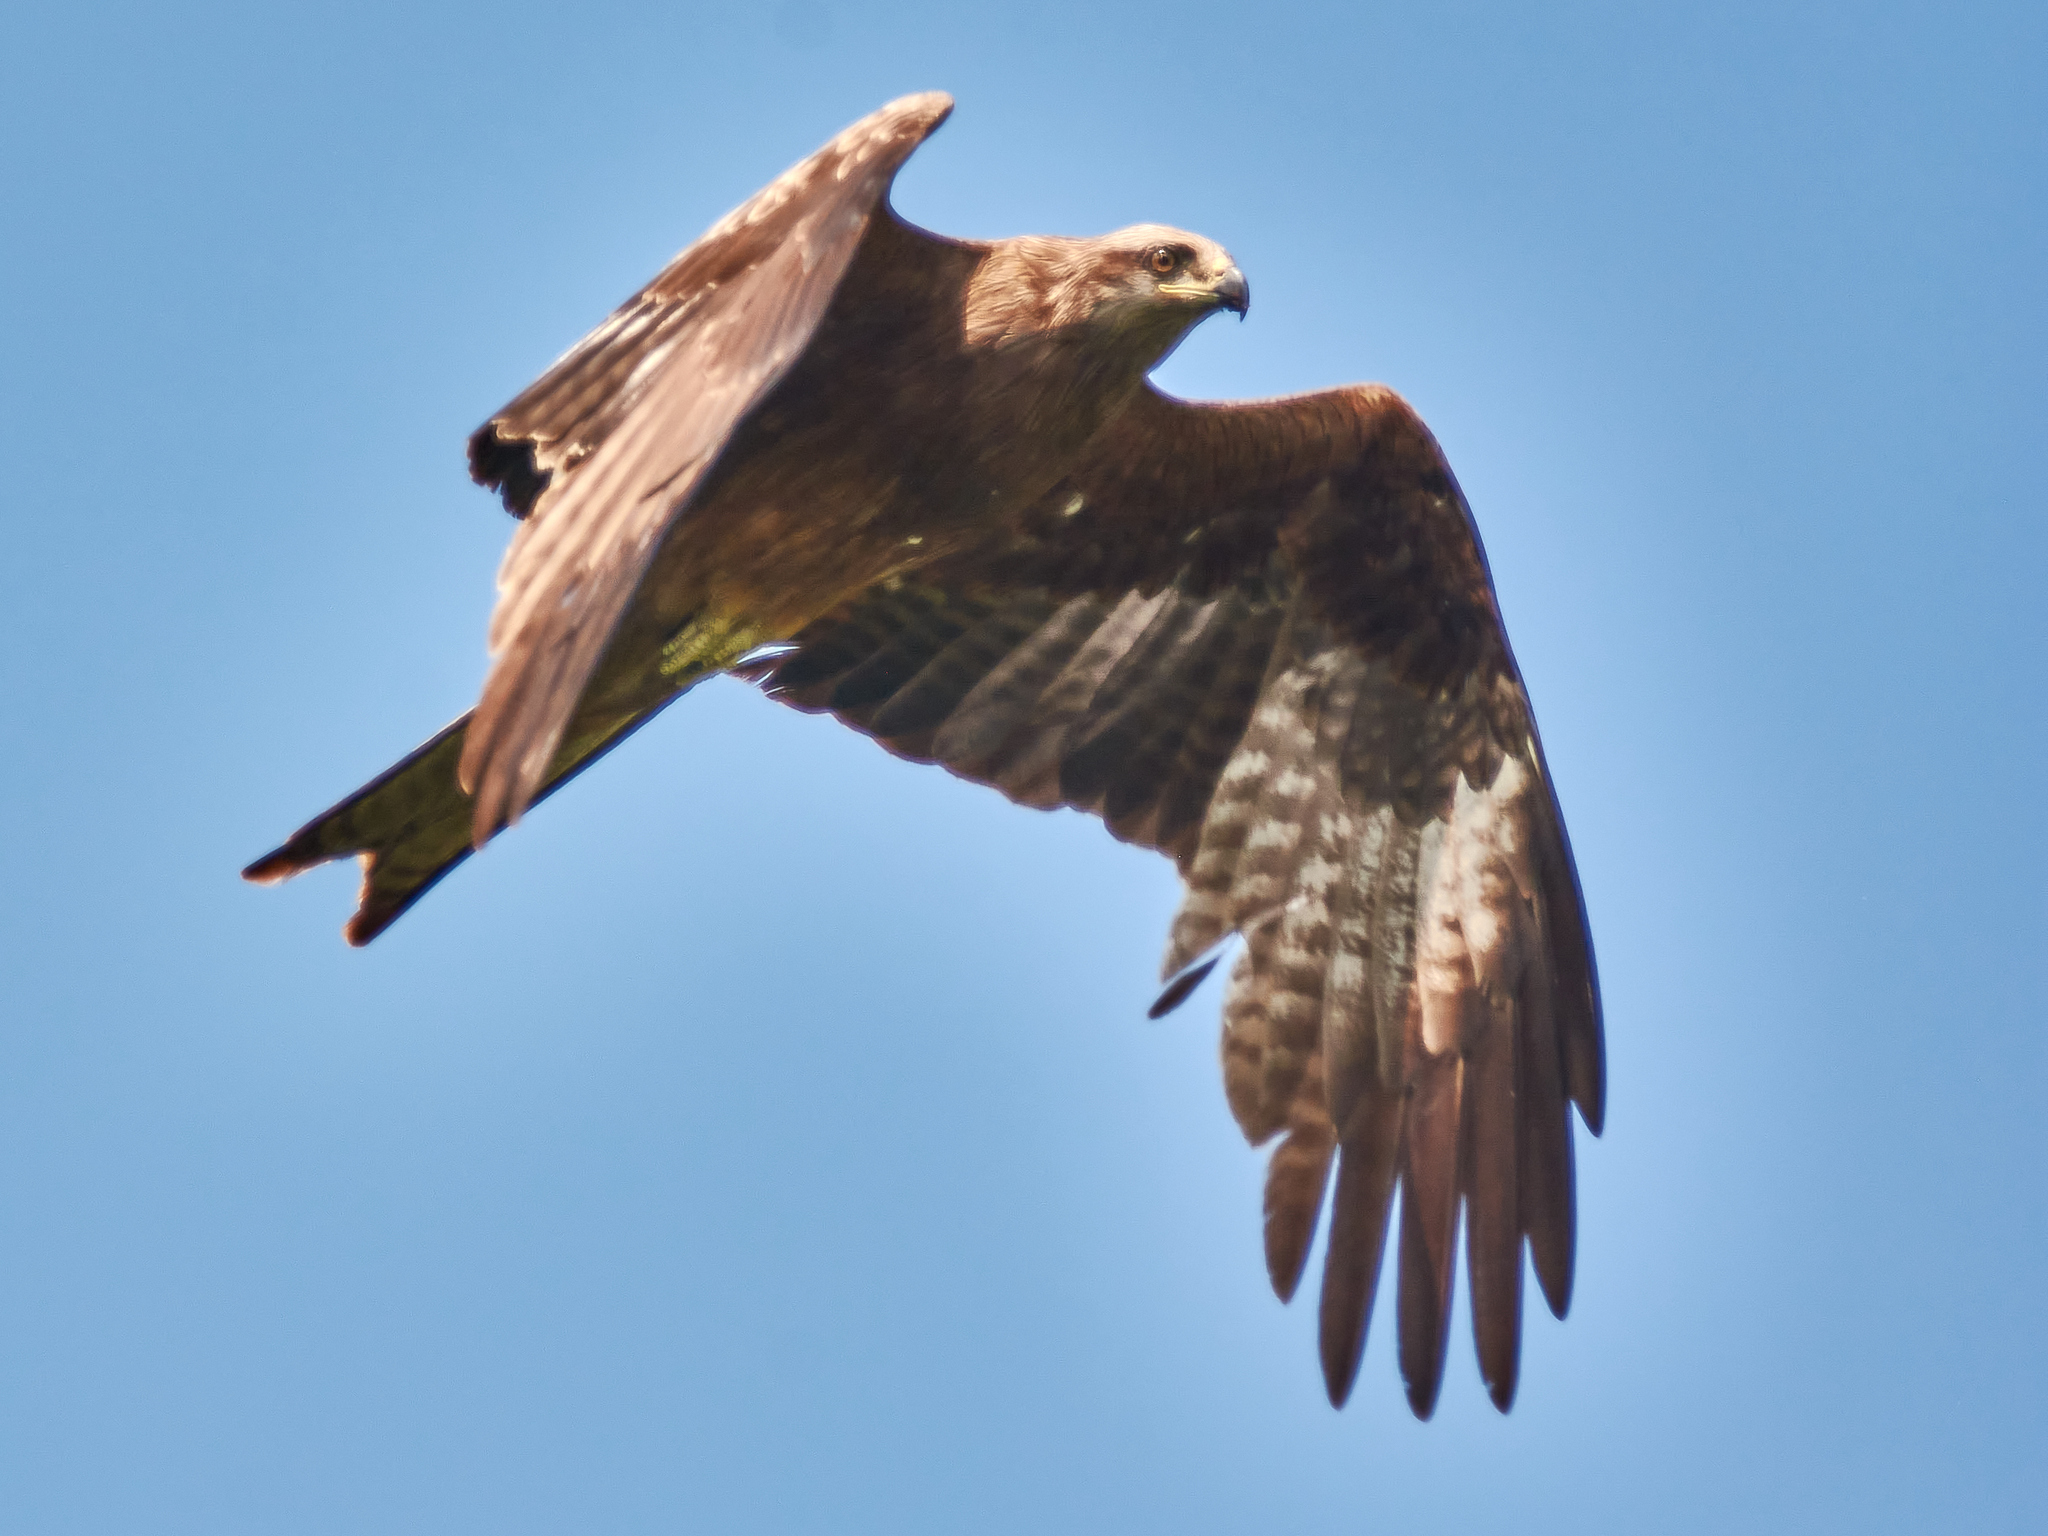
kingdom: Animalia
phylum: Chordata
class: Aves
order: Accipitriformes
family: Accipitridae
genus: Milvus
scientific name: Milvus migrans
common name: Black kite
